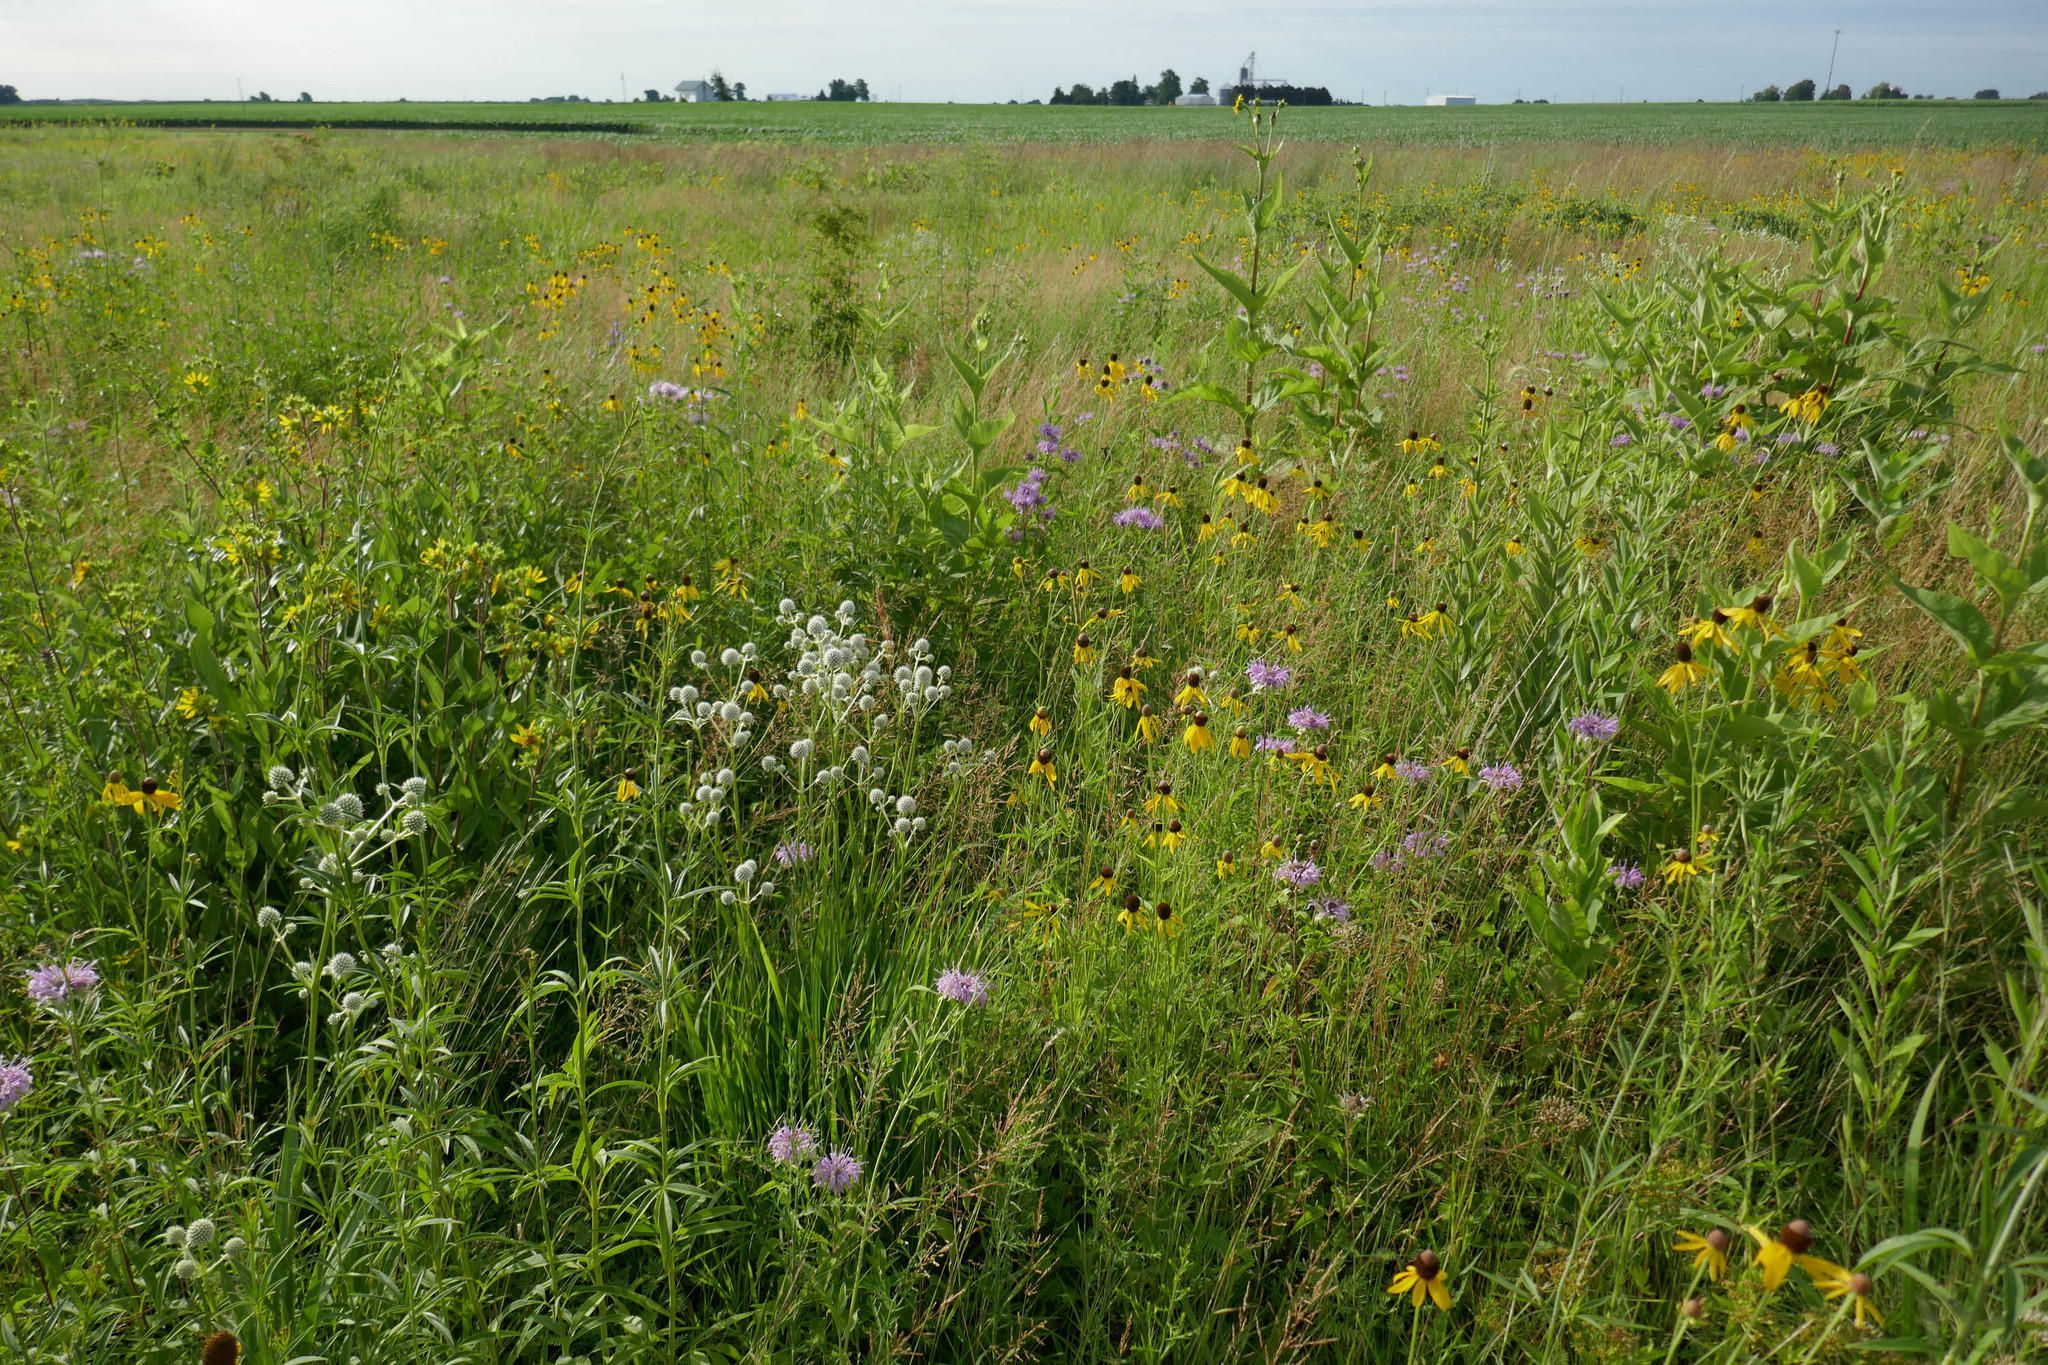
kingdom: Plantae
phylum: Tracheophyta
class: Magnoliopsida
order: Asterales
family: Asteraceae
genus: Silphium
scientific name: Silphium integrifolium
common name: Whole-leaf rosinweed
